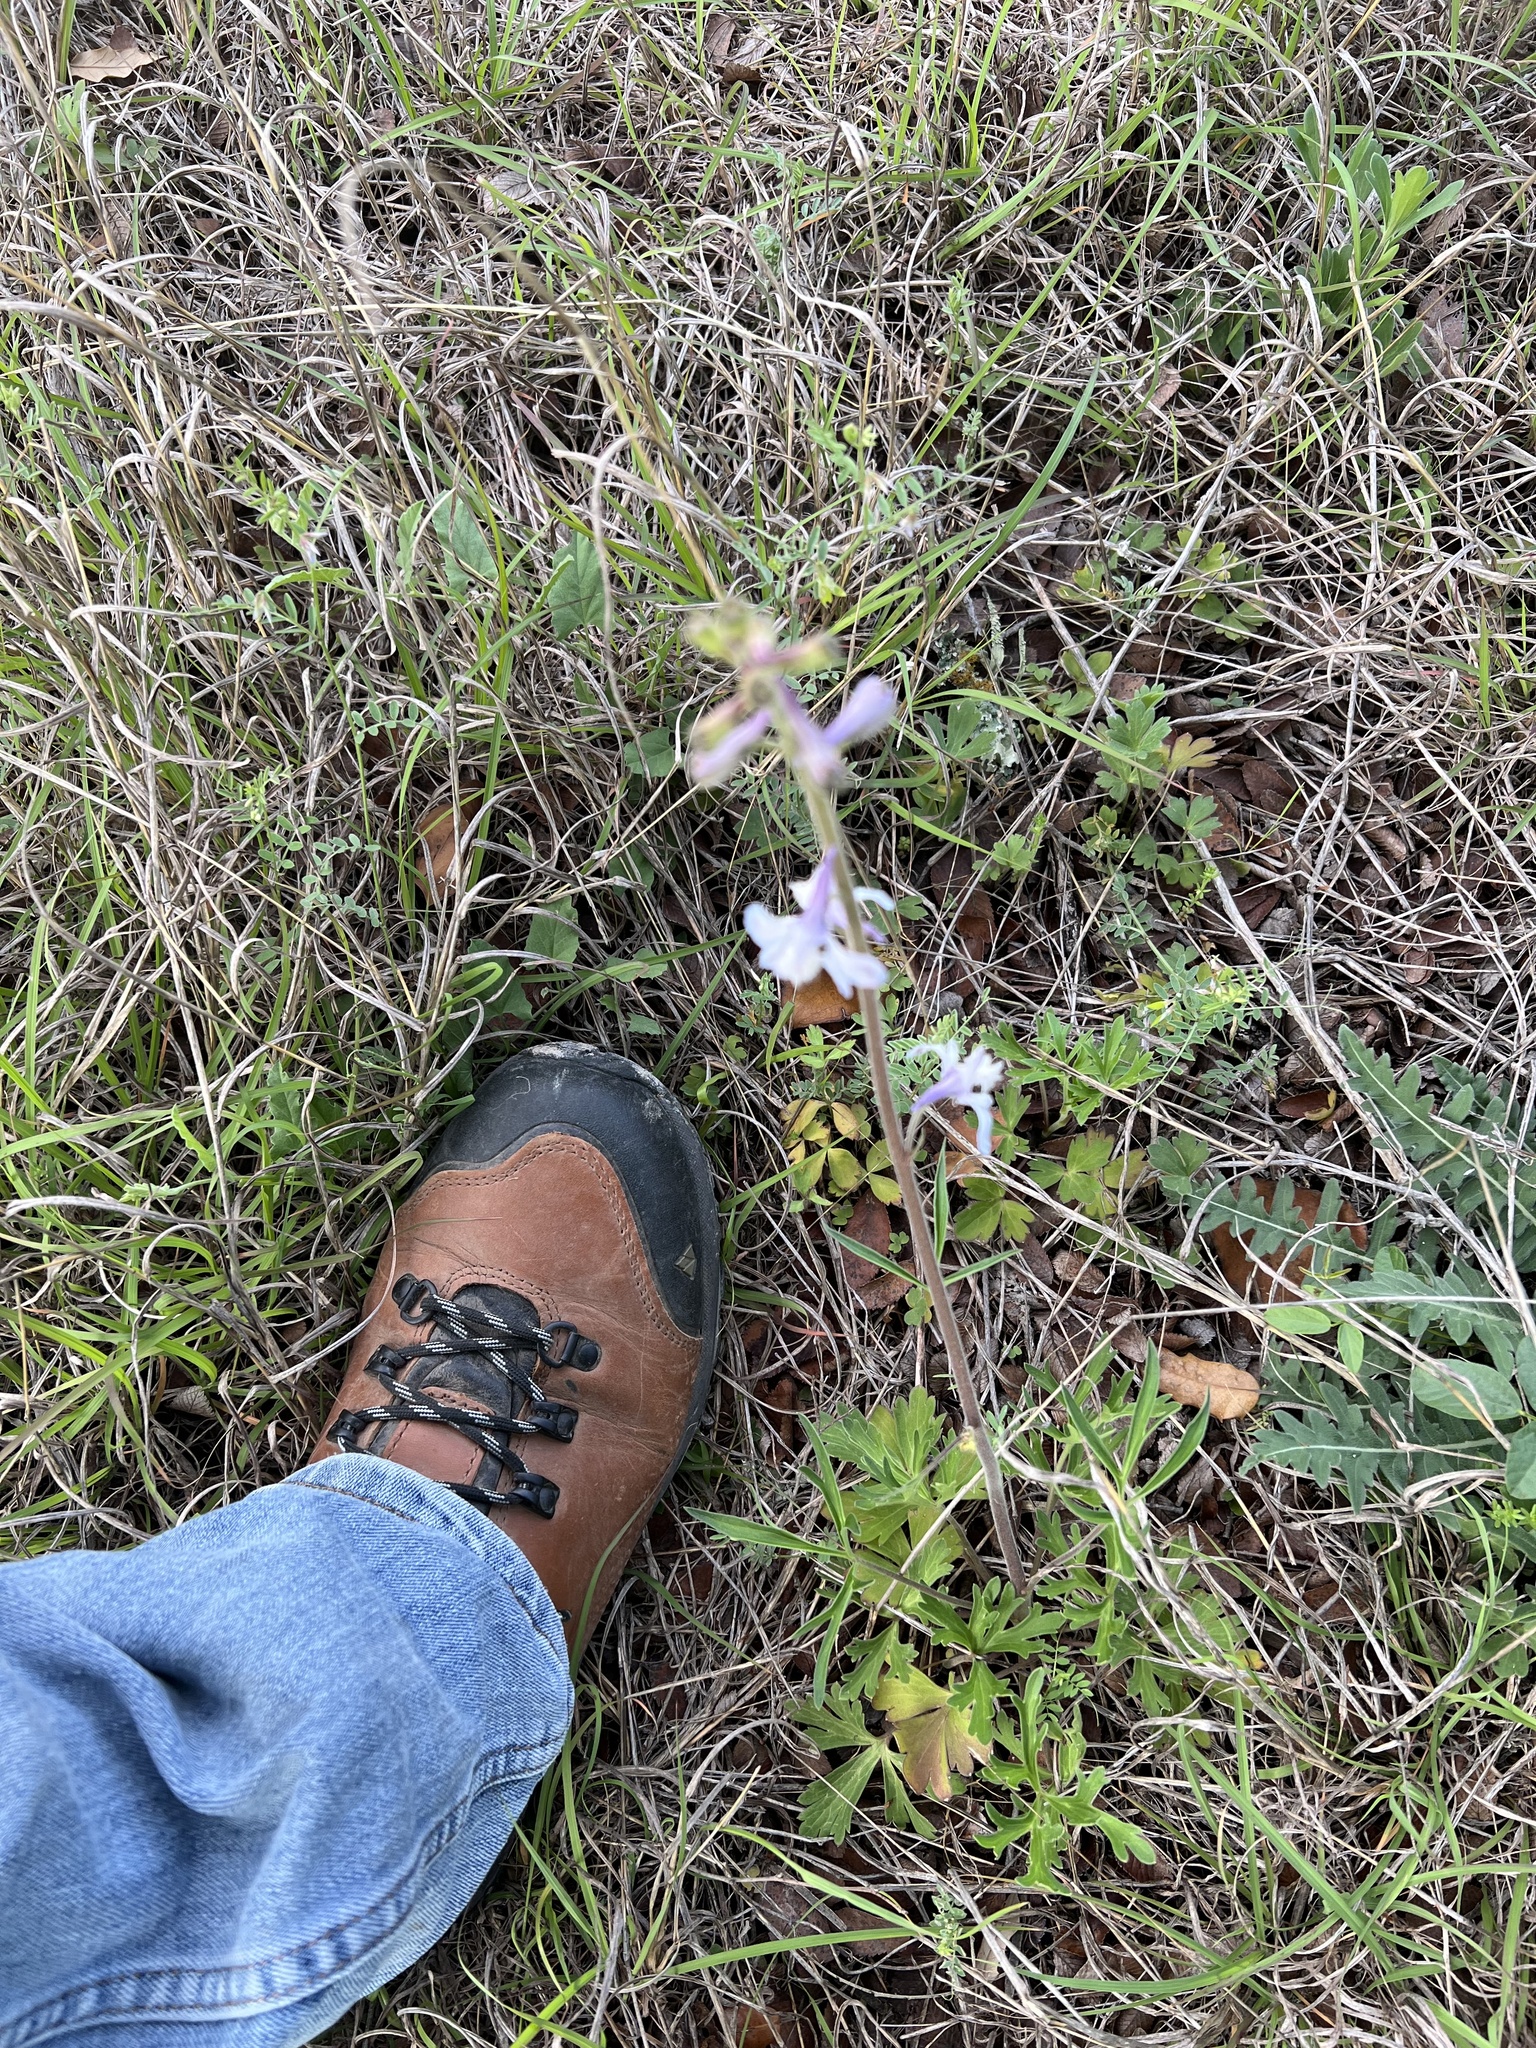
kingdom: Plantae
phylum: Tracheophyta
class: Magnoliopsida
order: Ranunculales
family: Ranunculaceae
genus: Delphinium
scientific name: Delphinium carolinianum
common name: Carolina larkspur
